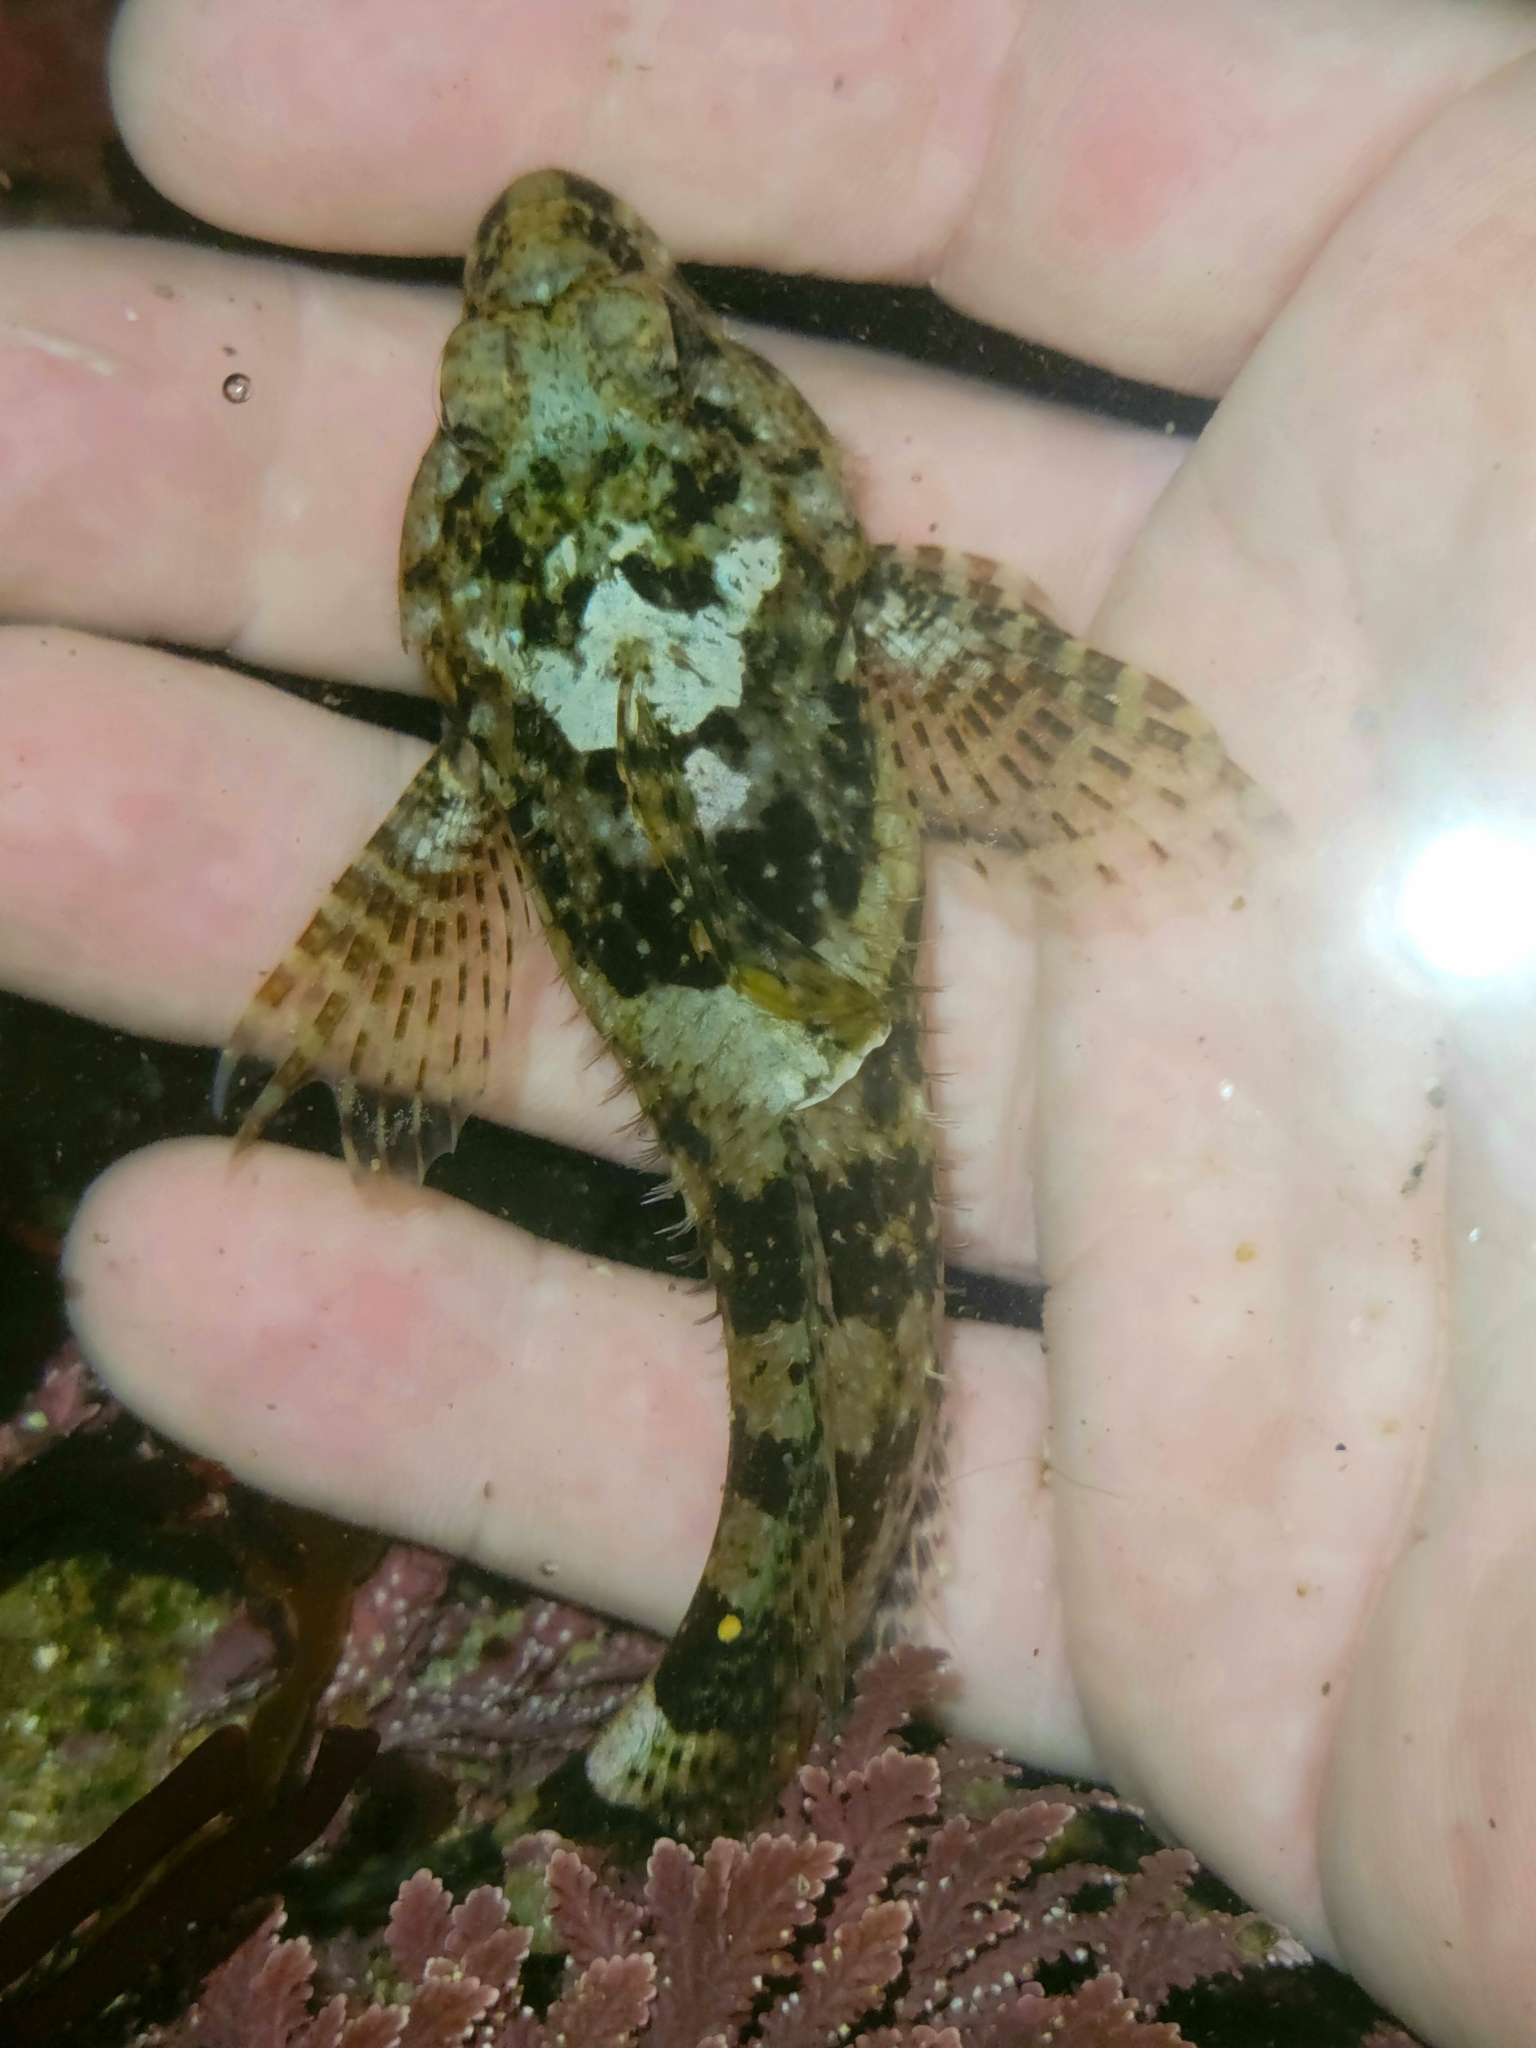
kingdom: Animalia
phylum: Chordata
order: Scorpaeniformes
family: Cottidae
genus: Clinocottus
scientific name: Clinocottus analis
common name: Woolly sculpin
